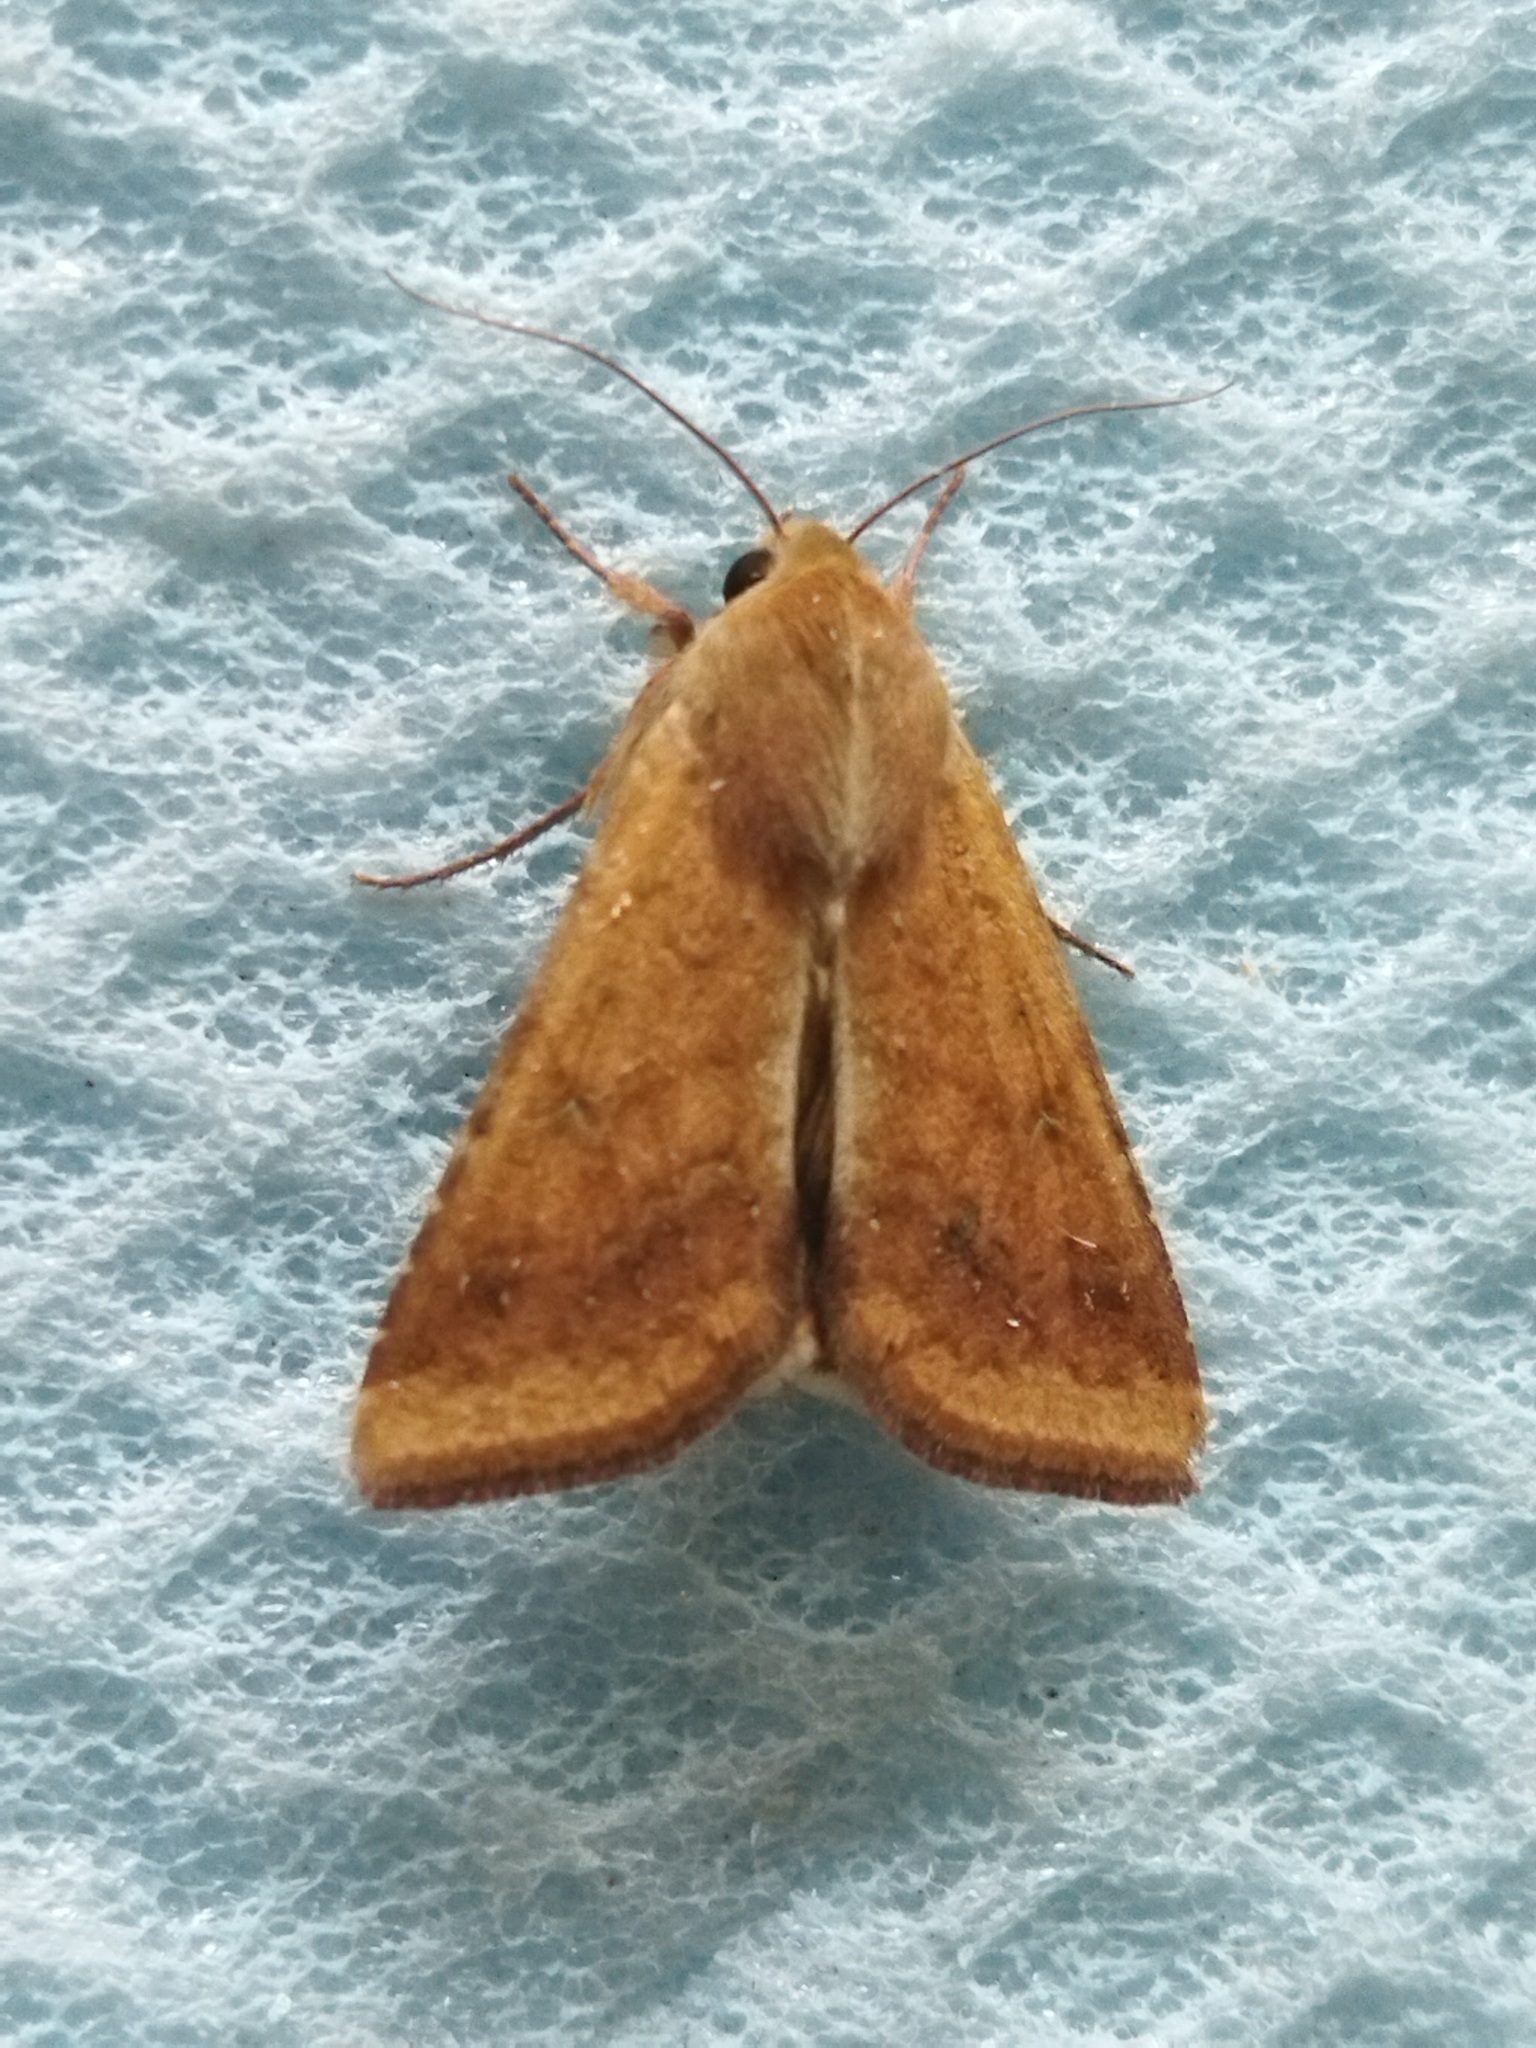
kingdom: Animalia
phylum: Arthropoda
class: Insecta
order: Lepidoptera
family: Noctuidae
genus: Helicoverpa
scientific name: Helicoverpa armigera
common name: Cotton bollworm
